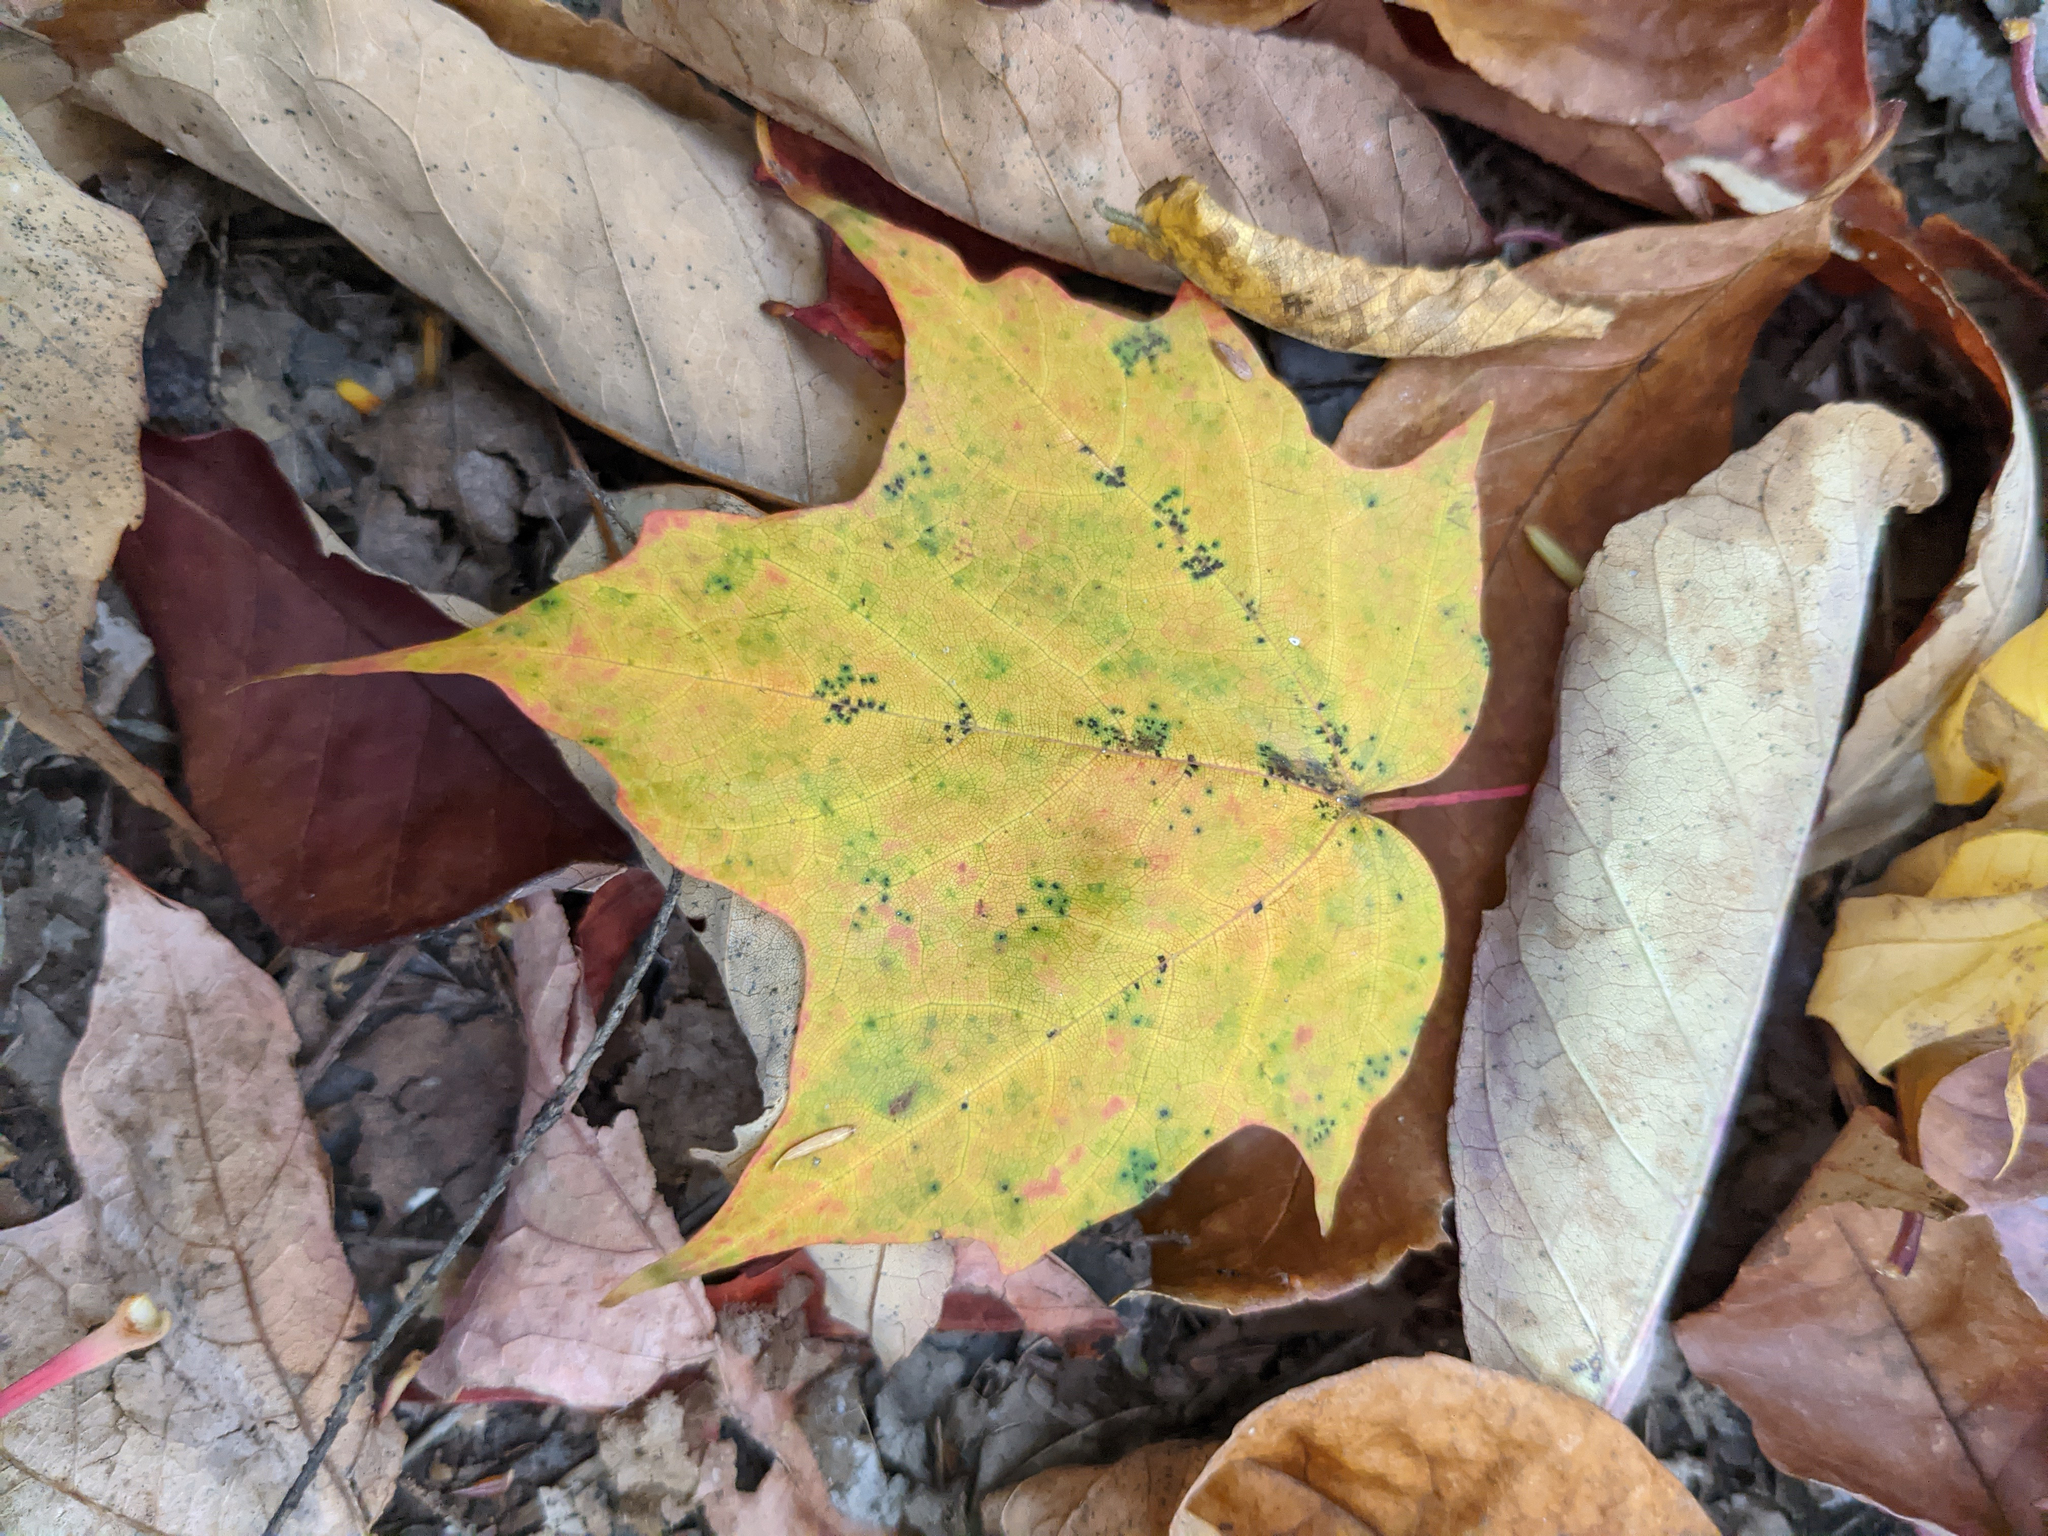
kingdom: Plantae
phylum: Tracheophyta
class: Magnoliopsida
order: Sapindales
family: Sapindaceae
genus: Acer
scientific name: Acer saccharum
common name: Sugar maple
